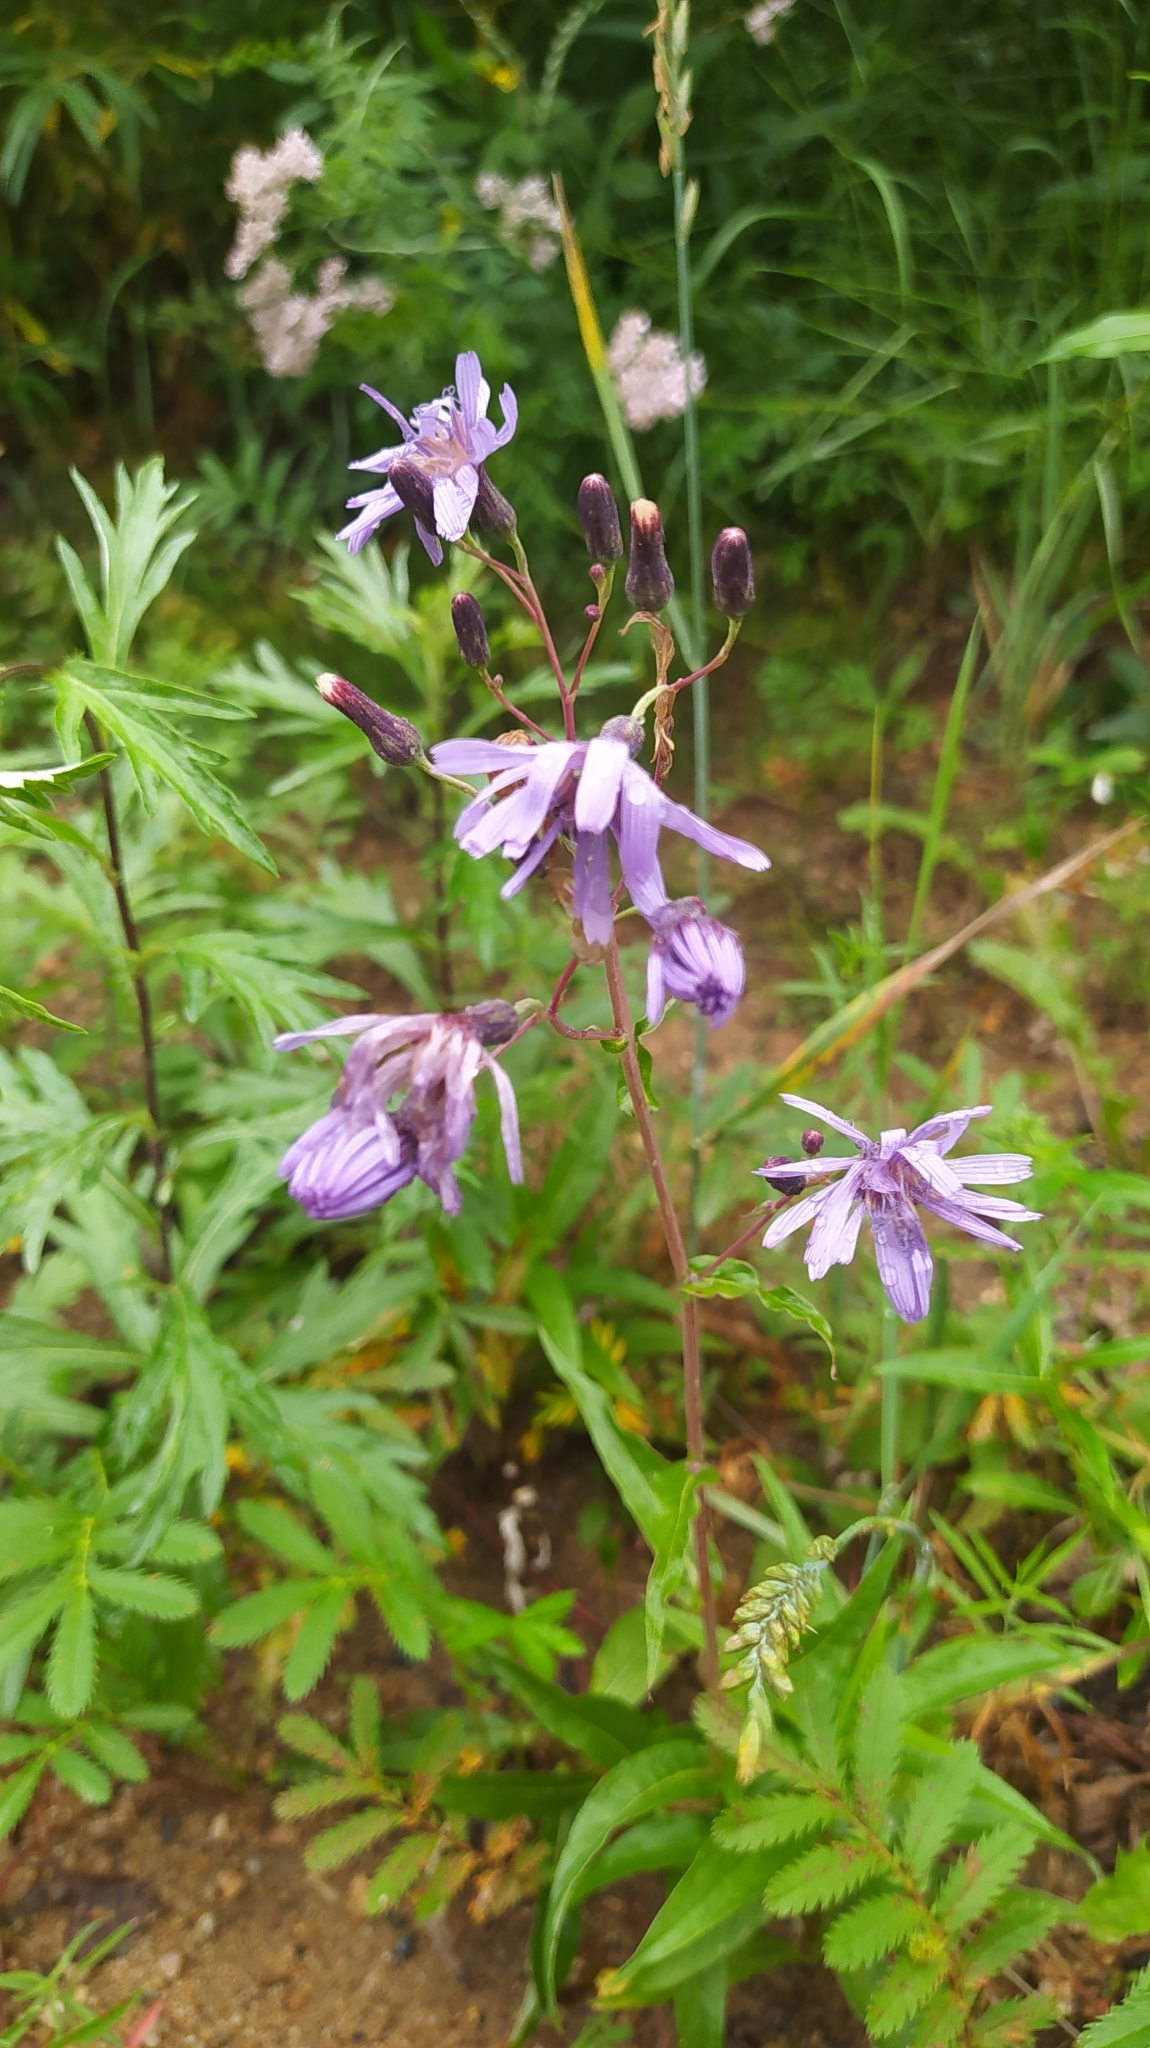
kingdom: Plantae
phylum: Tracheophyta
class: Magnoliopsida
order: Asterales
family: Asteraceae
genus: Lactuca
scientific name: Lactuca sibirica
